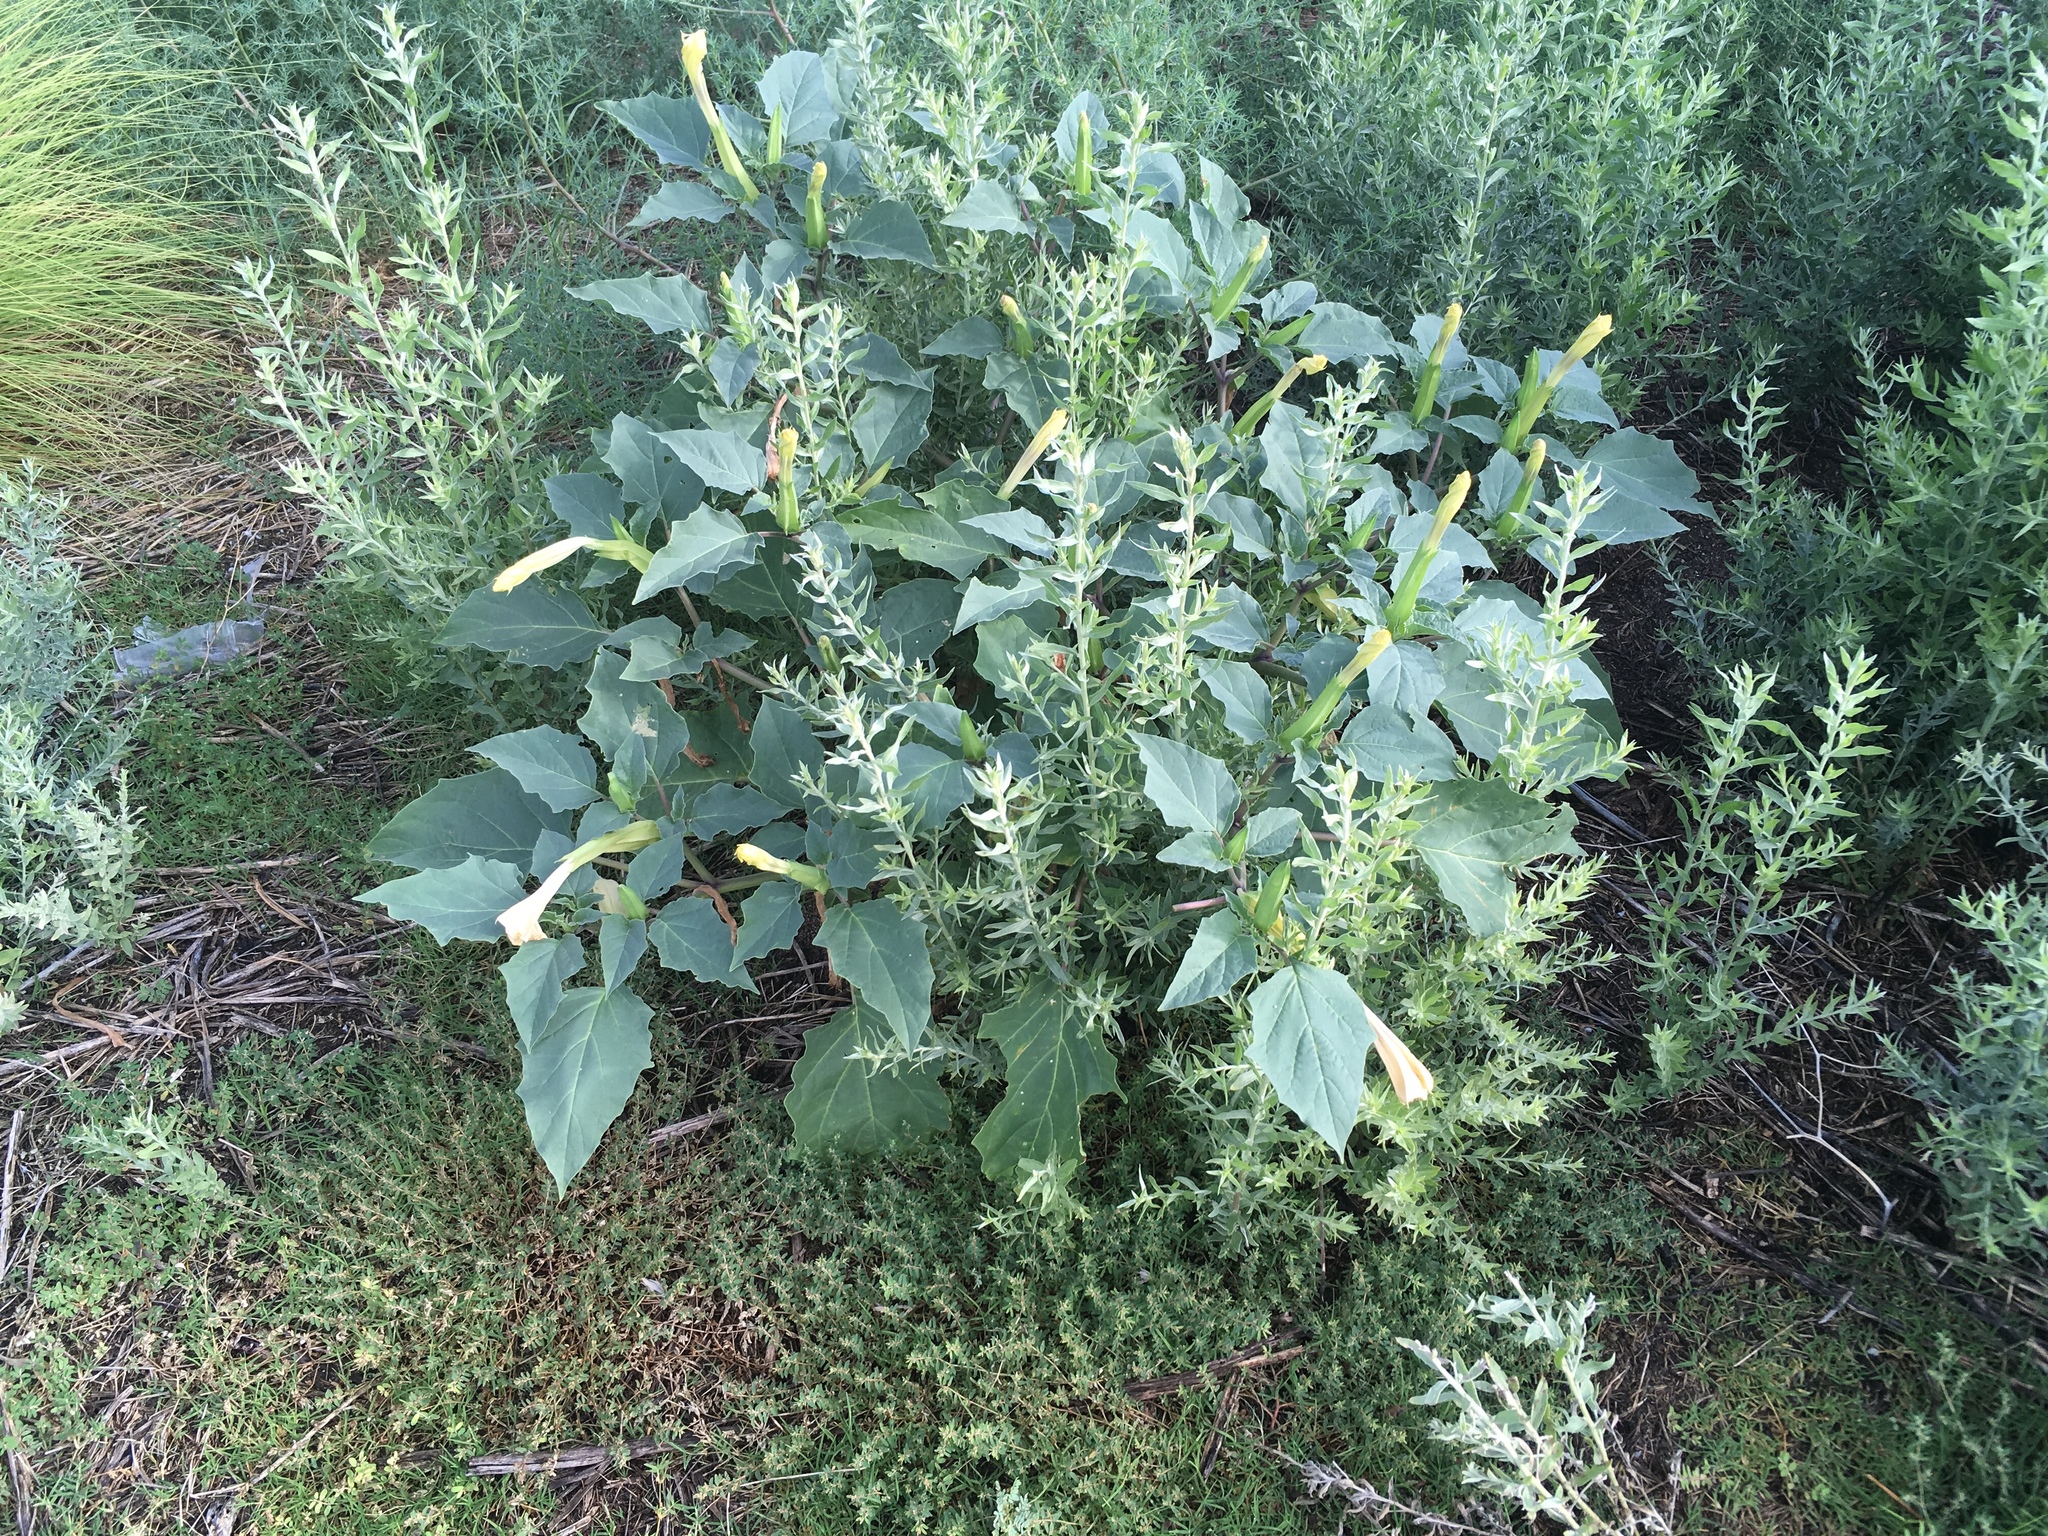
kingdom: Plantae
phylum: Tracheophyta
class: Magnoliopsida
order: Solanales
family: Solanaceae
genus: Datura
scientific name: Datura discolor
